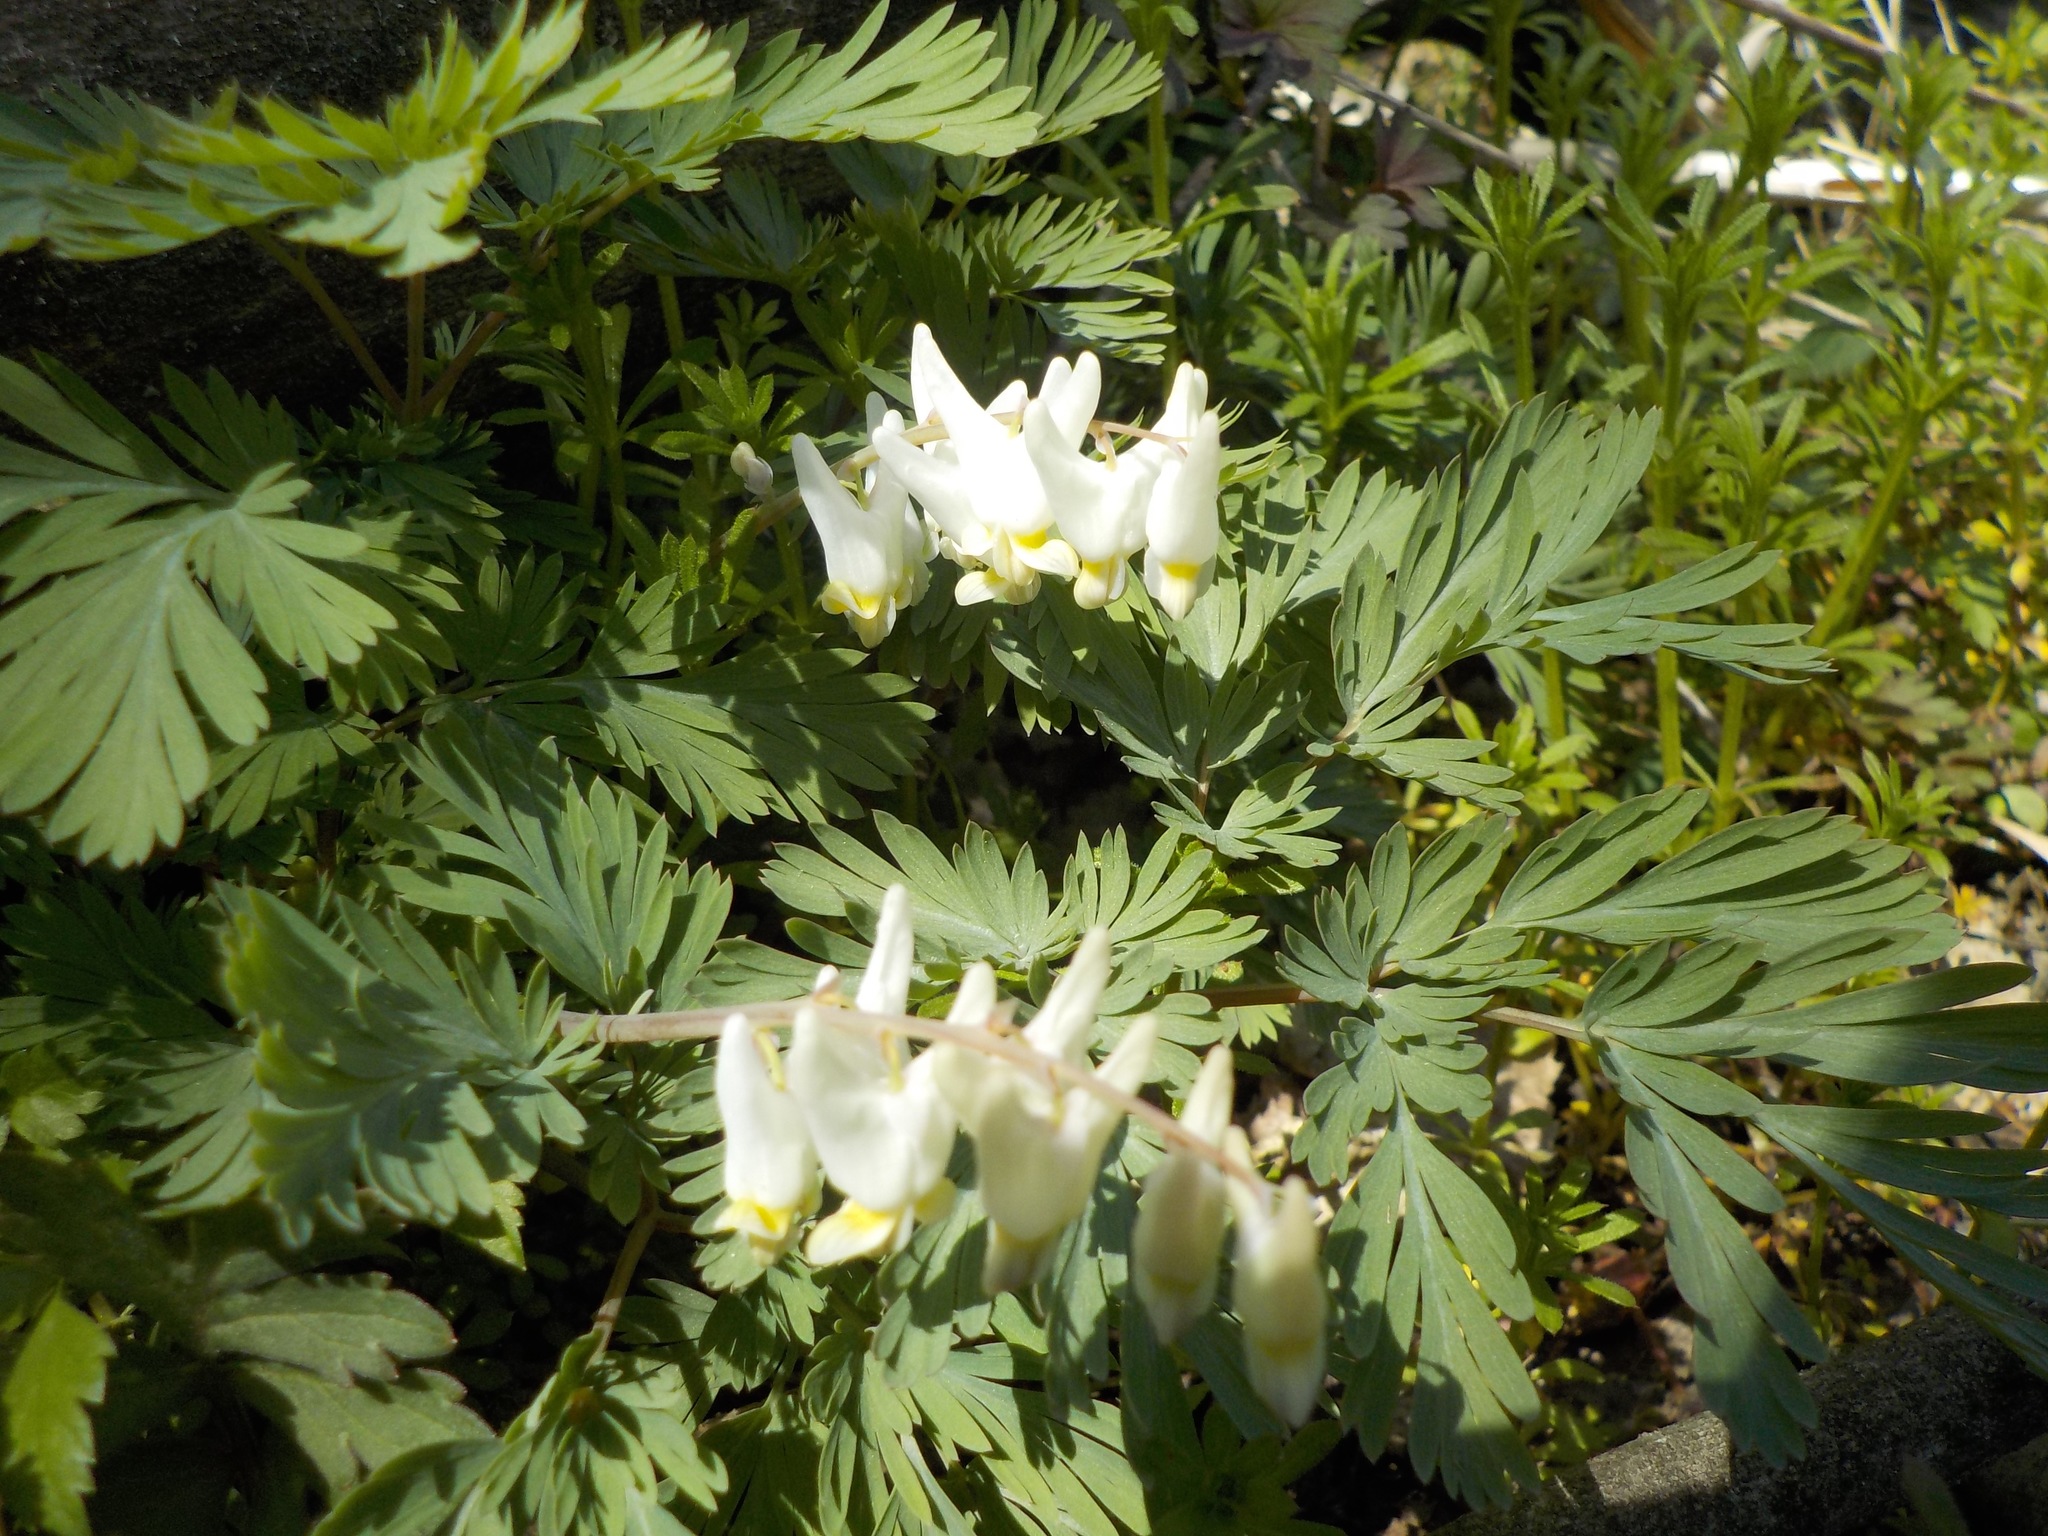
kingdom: Plantae
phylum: Tracheophyta
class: Magnoliopsida
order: Ranunculales
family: Papaveraceae
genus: Dicentra
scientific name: Dicentra cucullaria
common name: Dutchman's breeches
